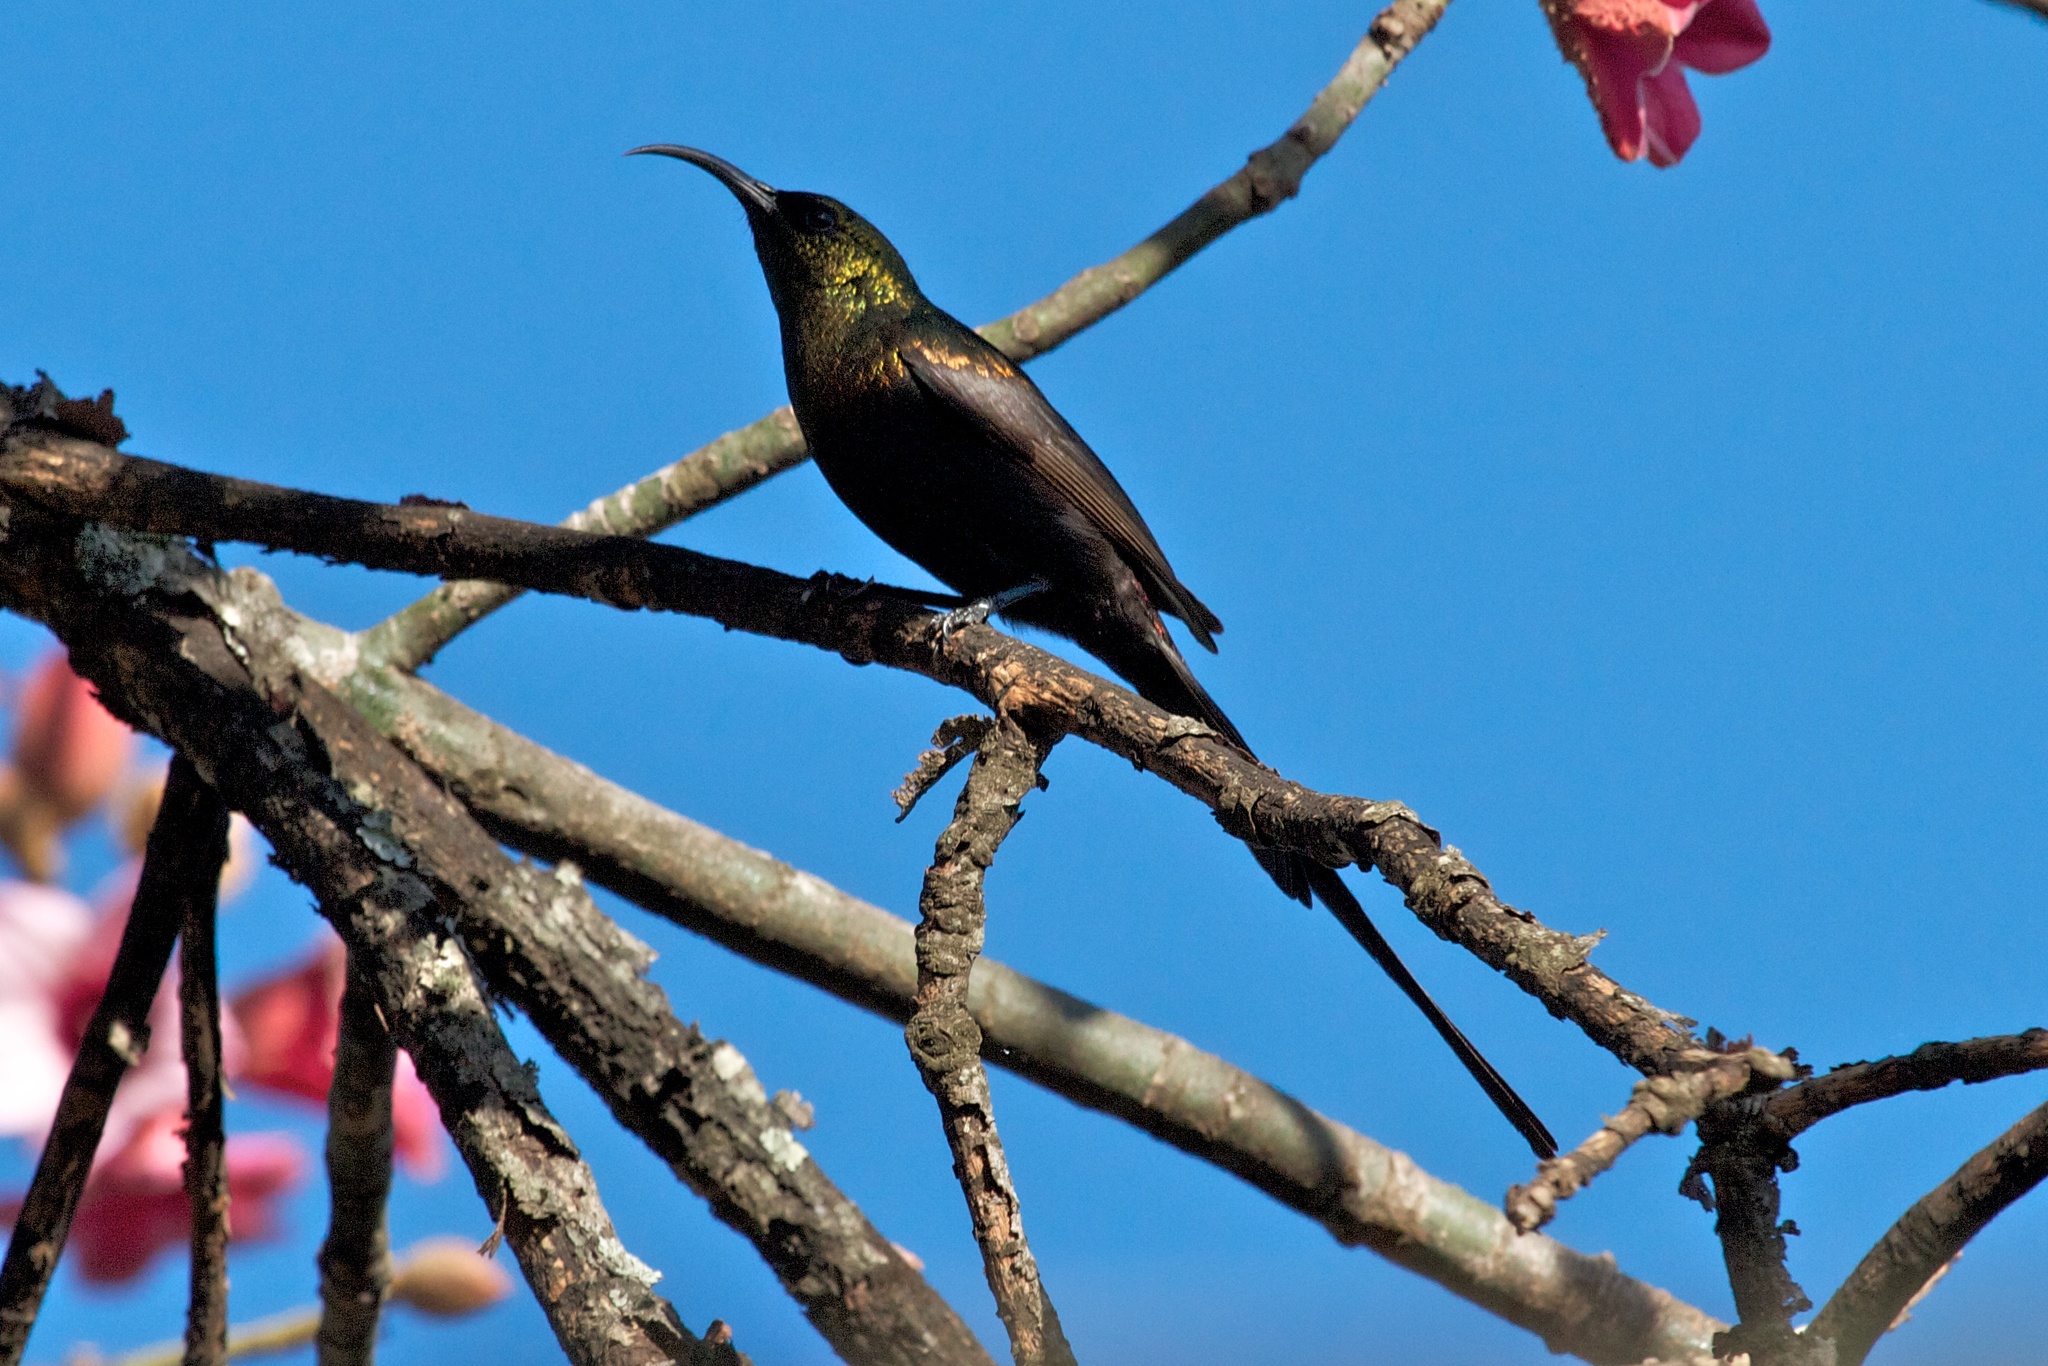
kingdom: Animalia
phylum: Chordata
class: Aves
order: Passeriformes
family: Nectariniidae
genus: Nectarinia
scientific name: Nectarinia kilimensis
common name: Bronzy sunbird
